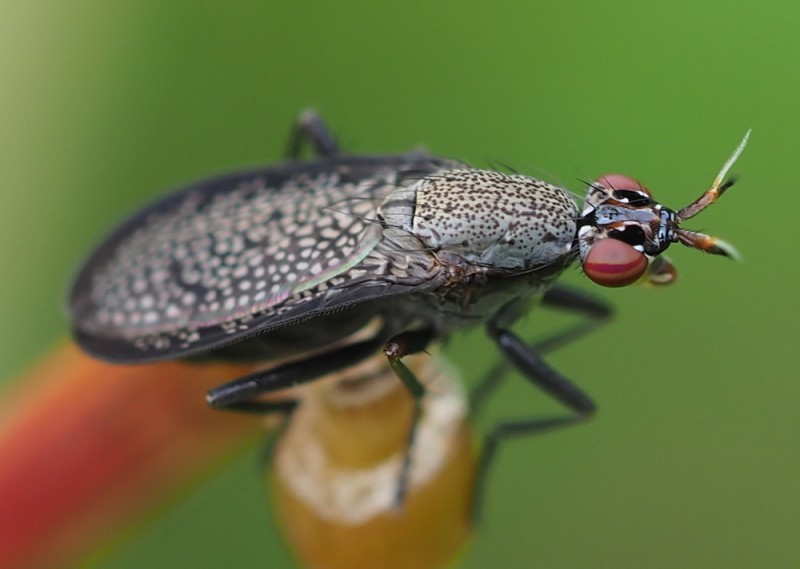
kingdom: Animalia
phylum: Arthropoda
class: Insecta
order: Diptera
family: Sciomyzidae
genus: Coremacera
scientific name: Coremacera marginata
